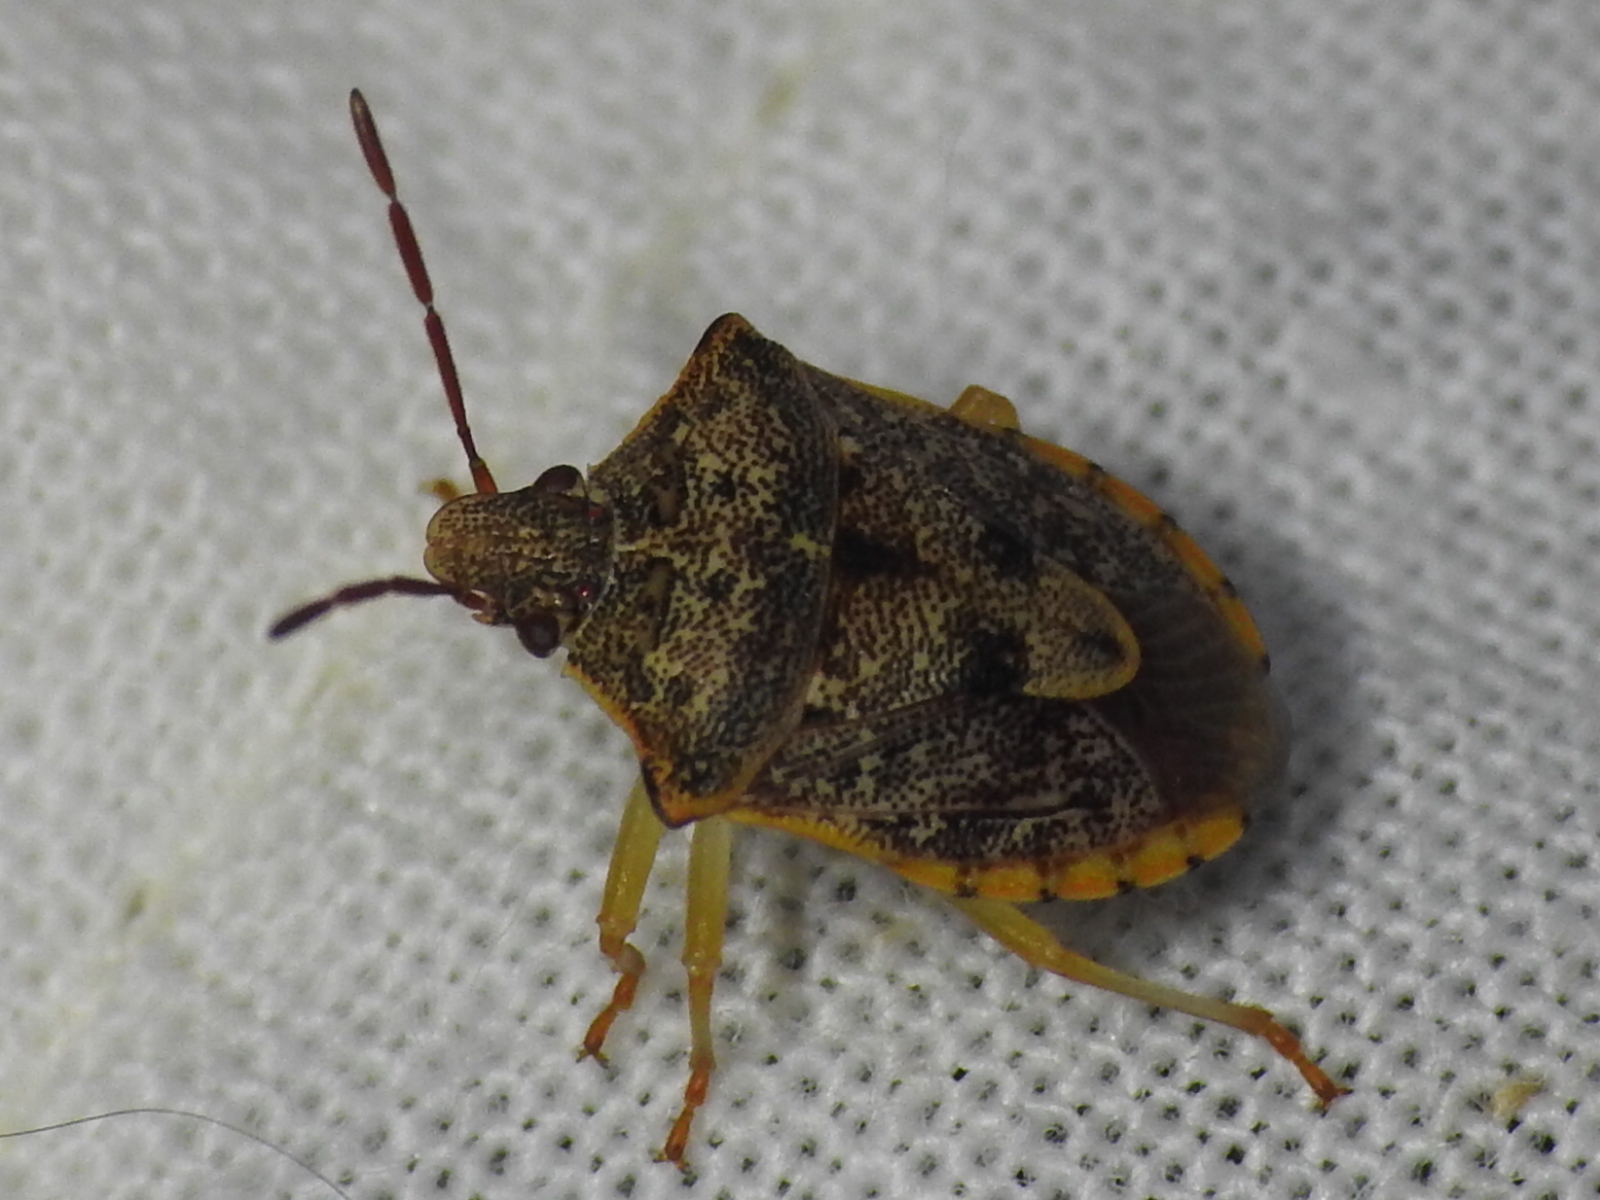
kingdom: Animalia
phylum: Arthropoda
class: Insecta
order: Hemiptera
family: Pentatomidae
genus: Dendrocoris
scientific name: Dendrocoris humeralis
